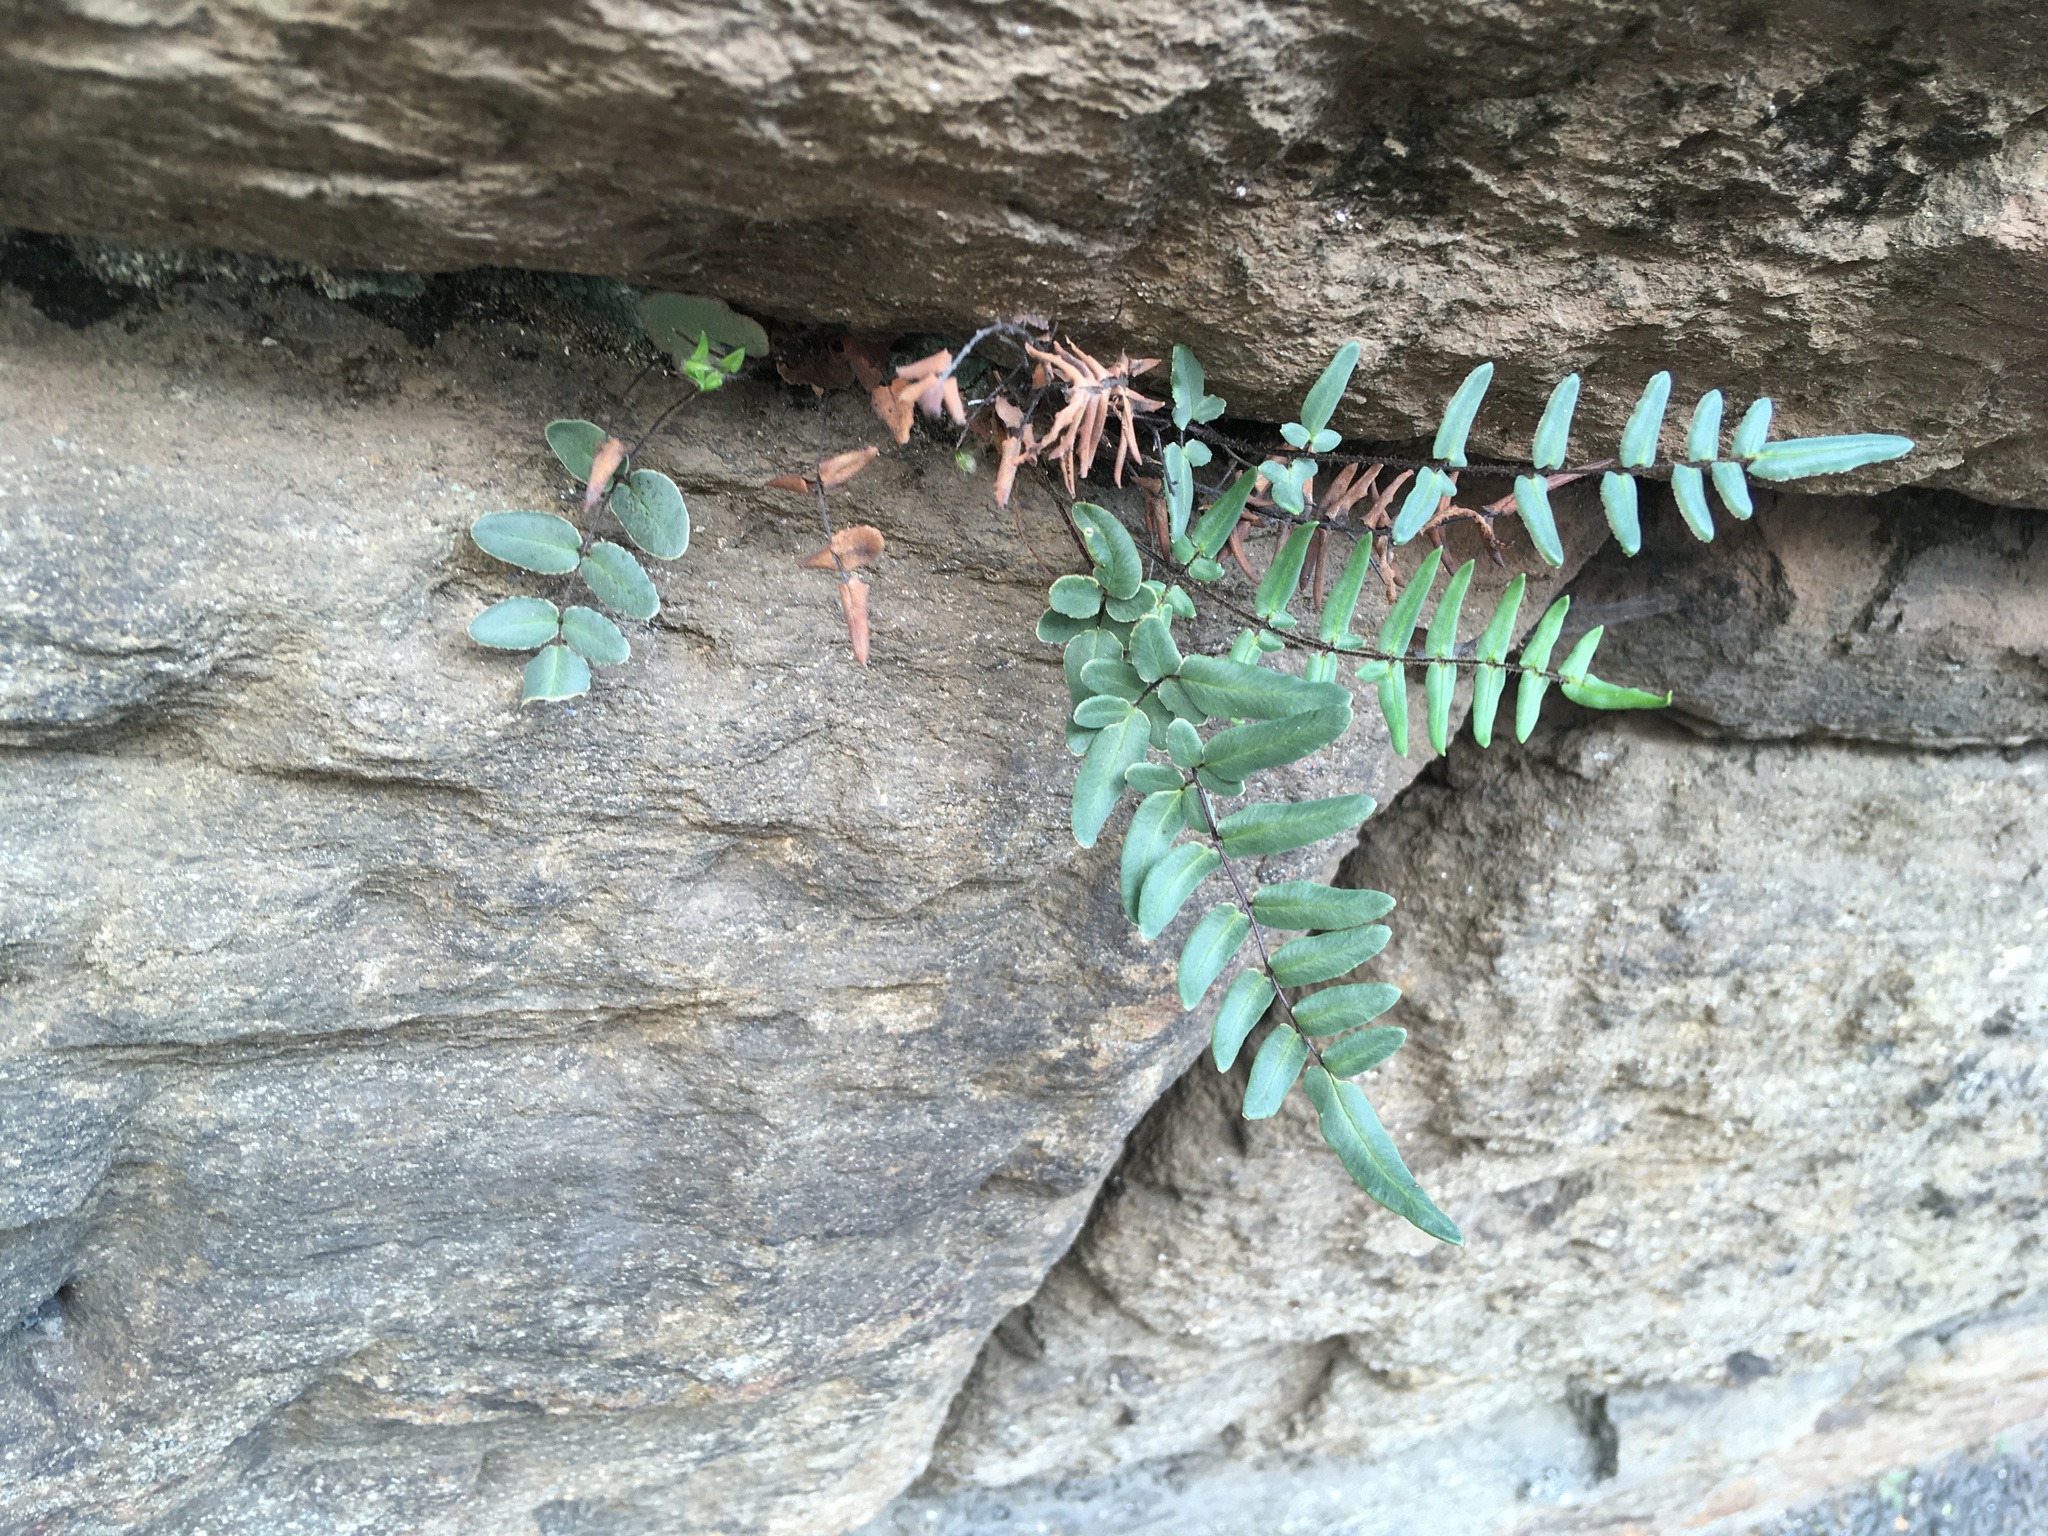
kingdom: Plantae
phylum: Tracheophyta
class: Polypodiopsida
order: Polypodiales
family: Pteridaceae
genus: Pellaea
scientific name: Pellaea atropurpurea
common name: Hairy cliffbrake
